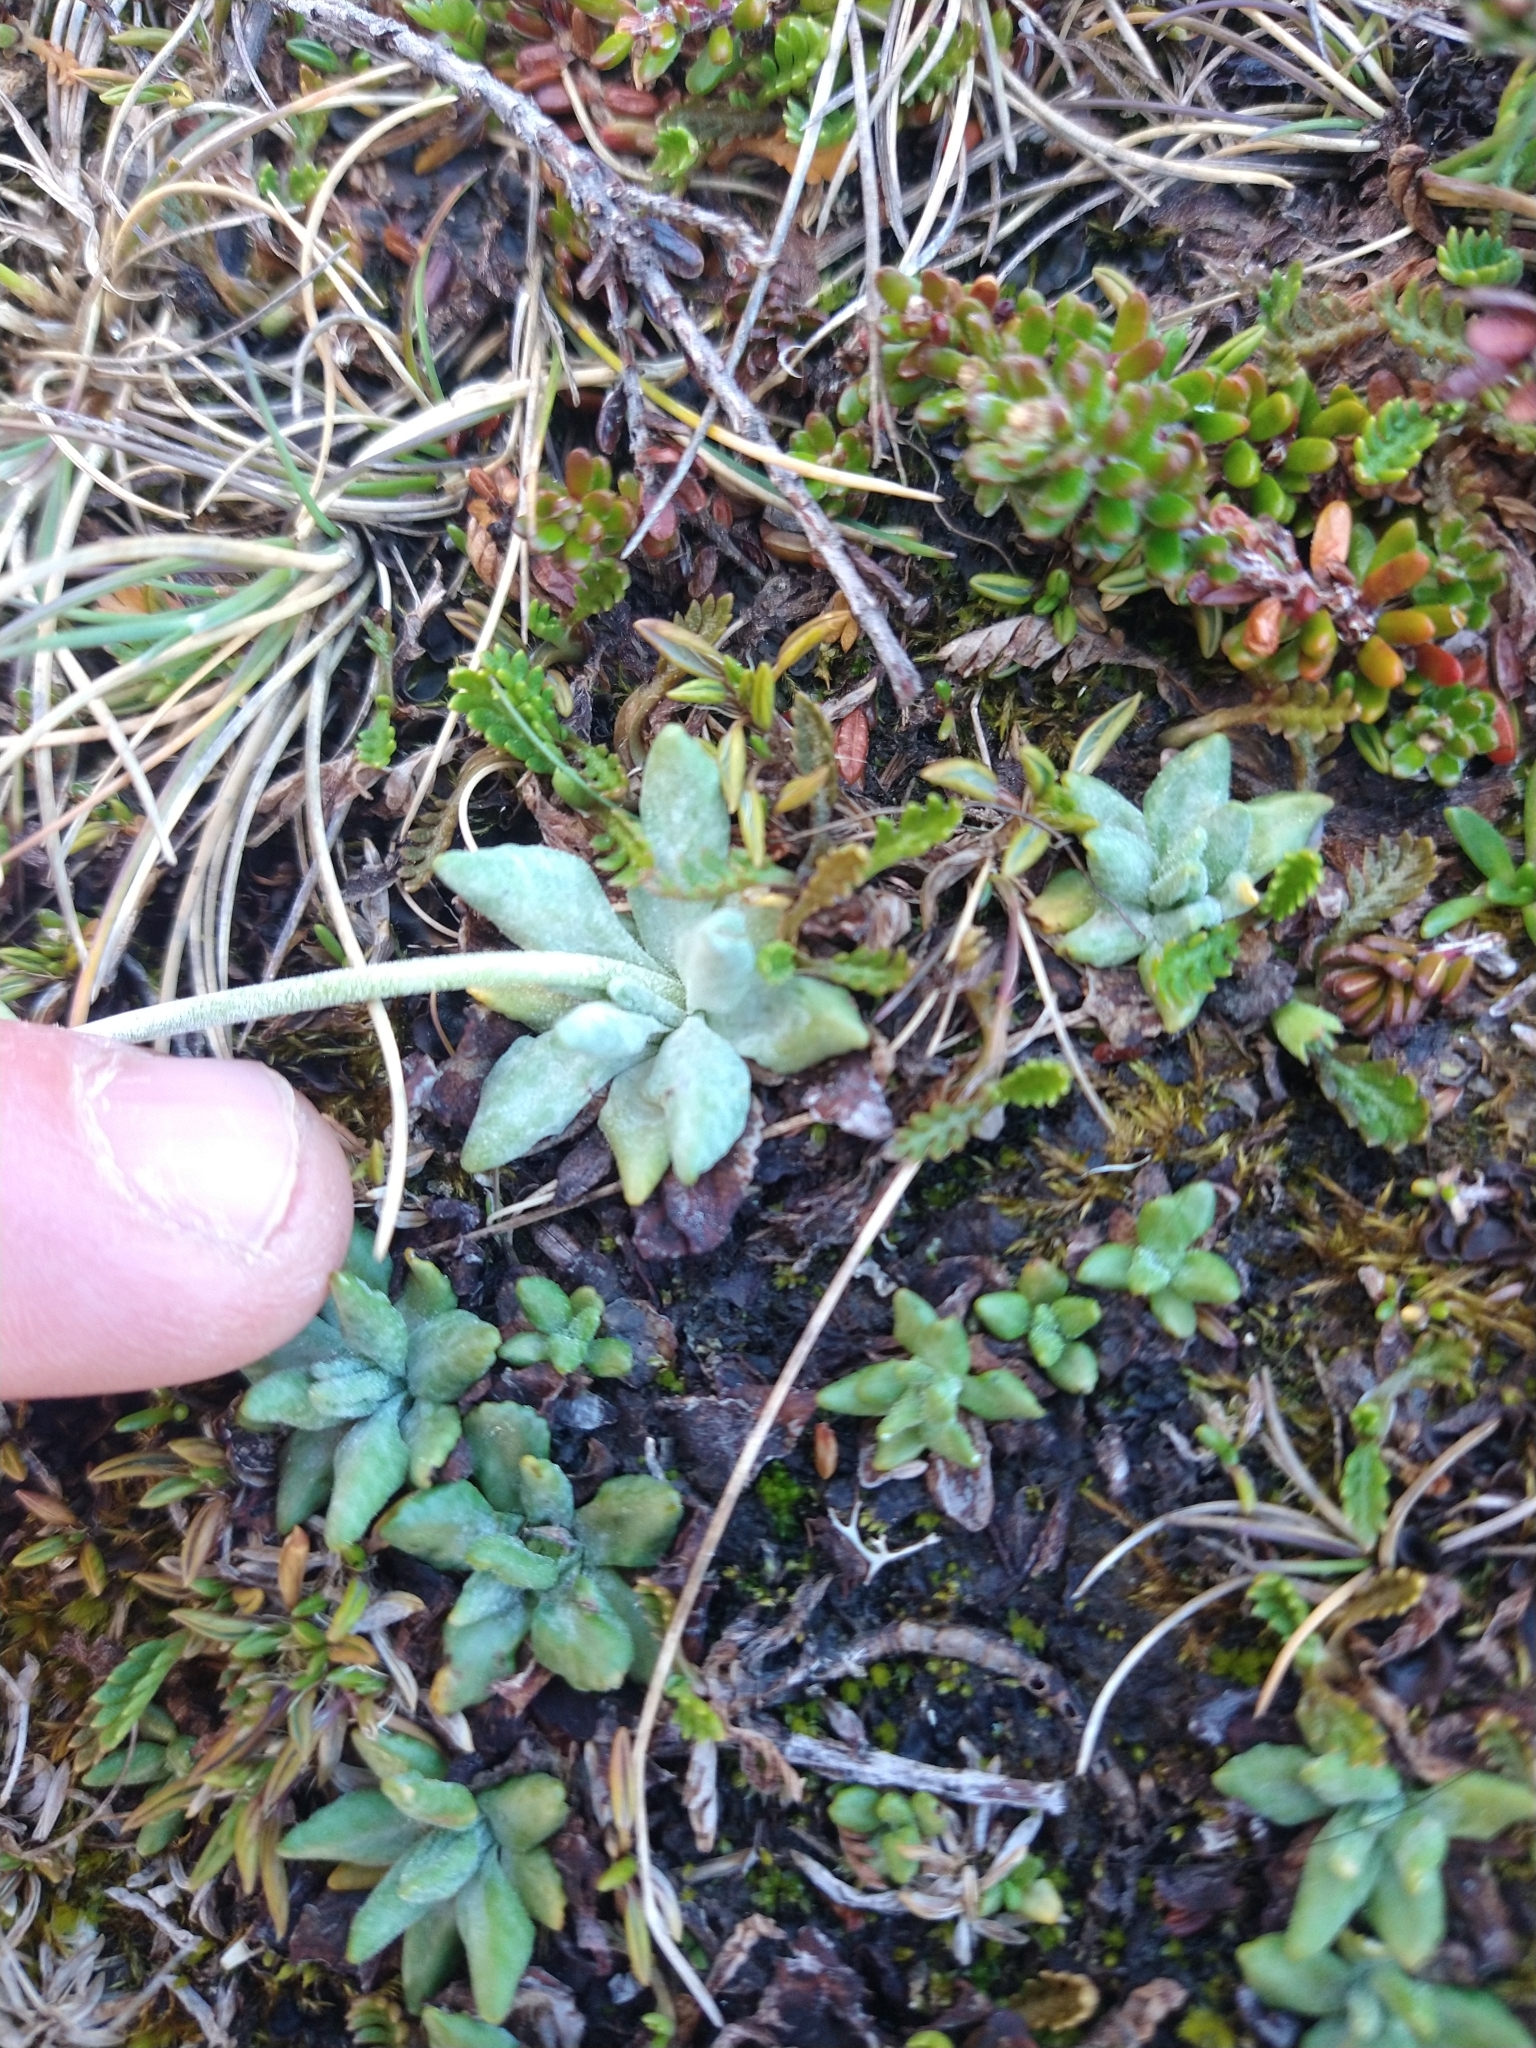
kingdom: Plantae
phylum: Tracheophyta
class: Magnoliopsida
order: Ericales
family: Primulaceae
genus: Primula
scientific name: Primula magellanica
